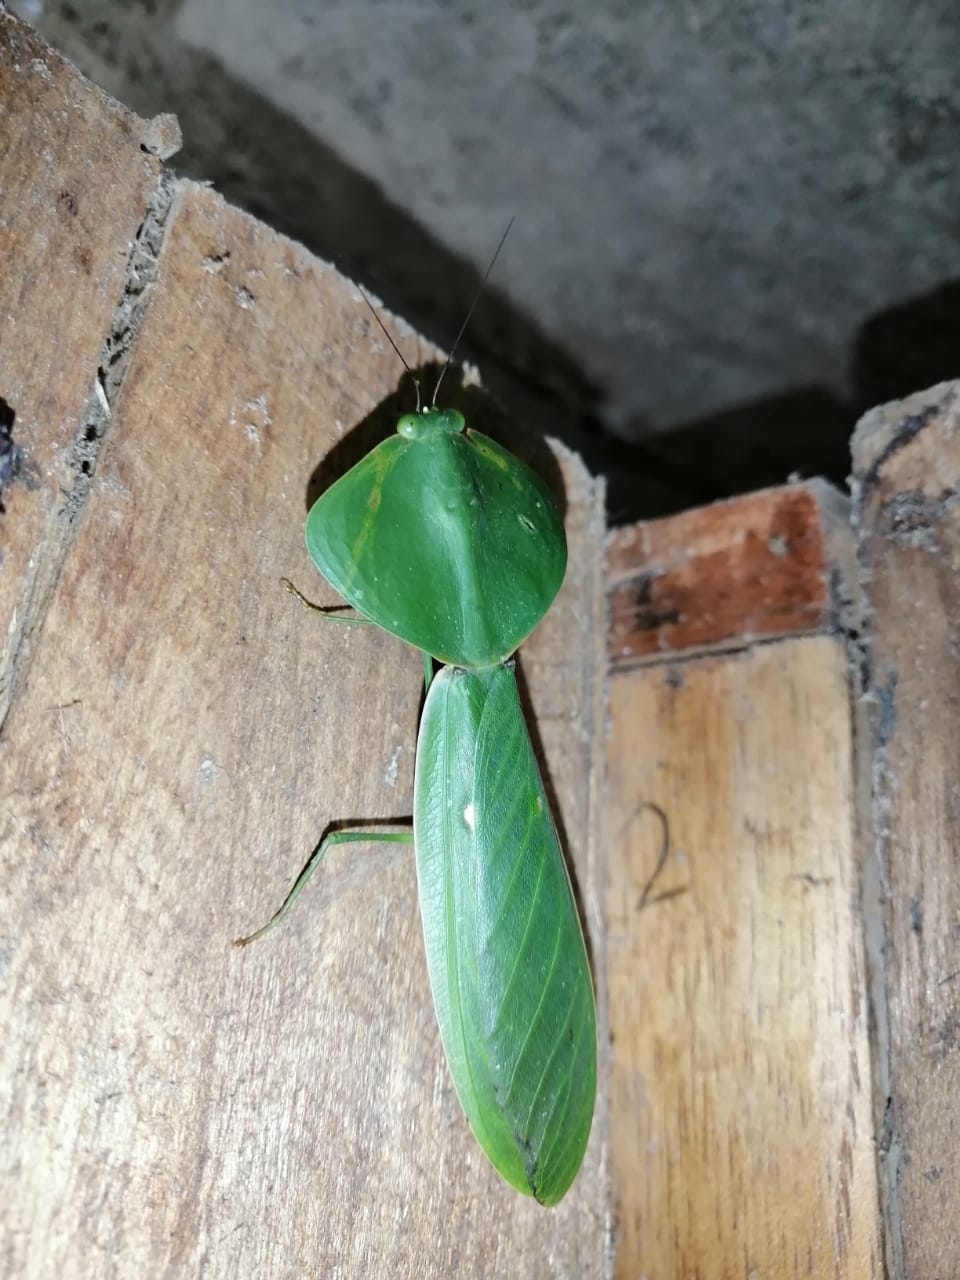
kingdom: Animalia
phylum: Arthropoda
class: Insecta
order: Mantodea
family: Mantidae
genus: Choeradodis
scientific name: Choeradodis rhombicollis
